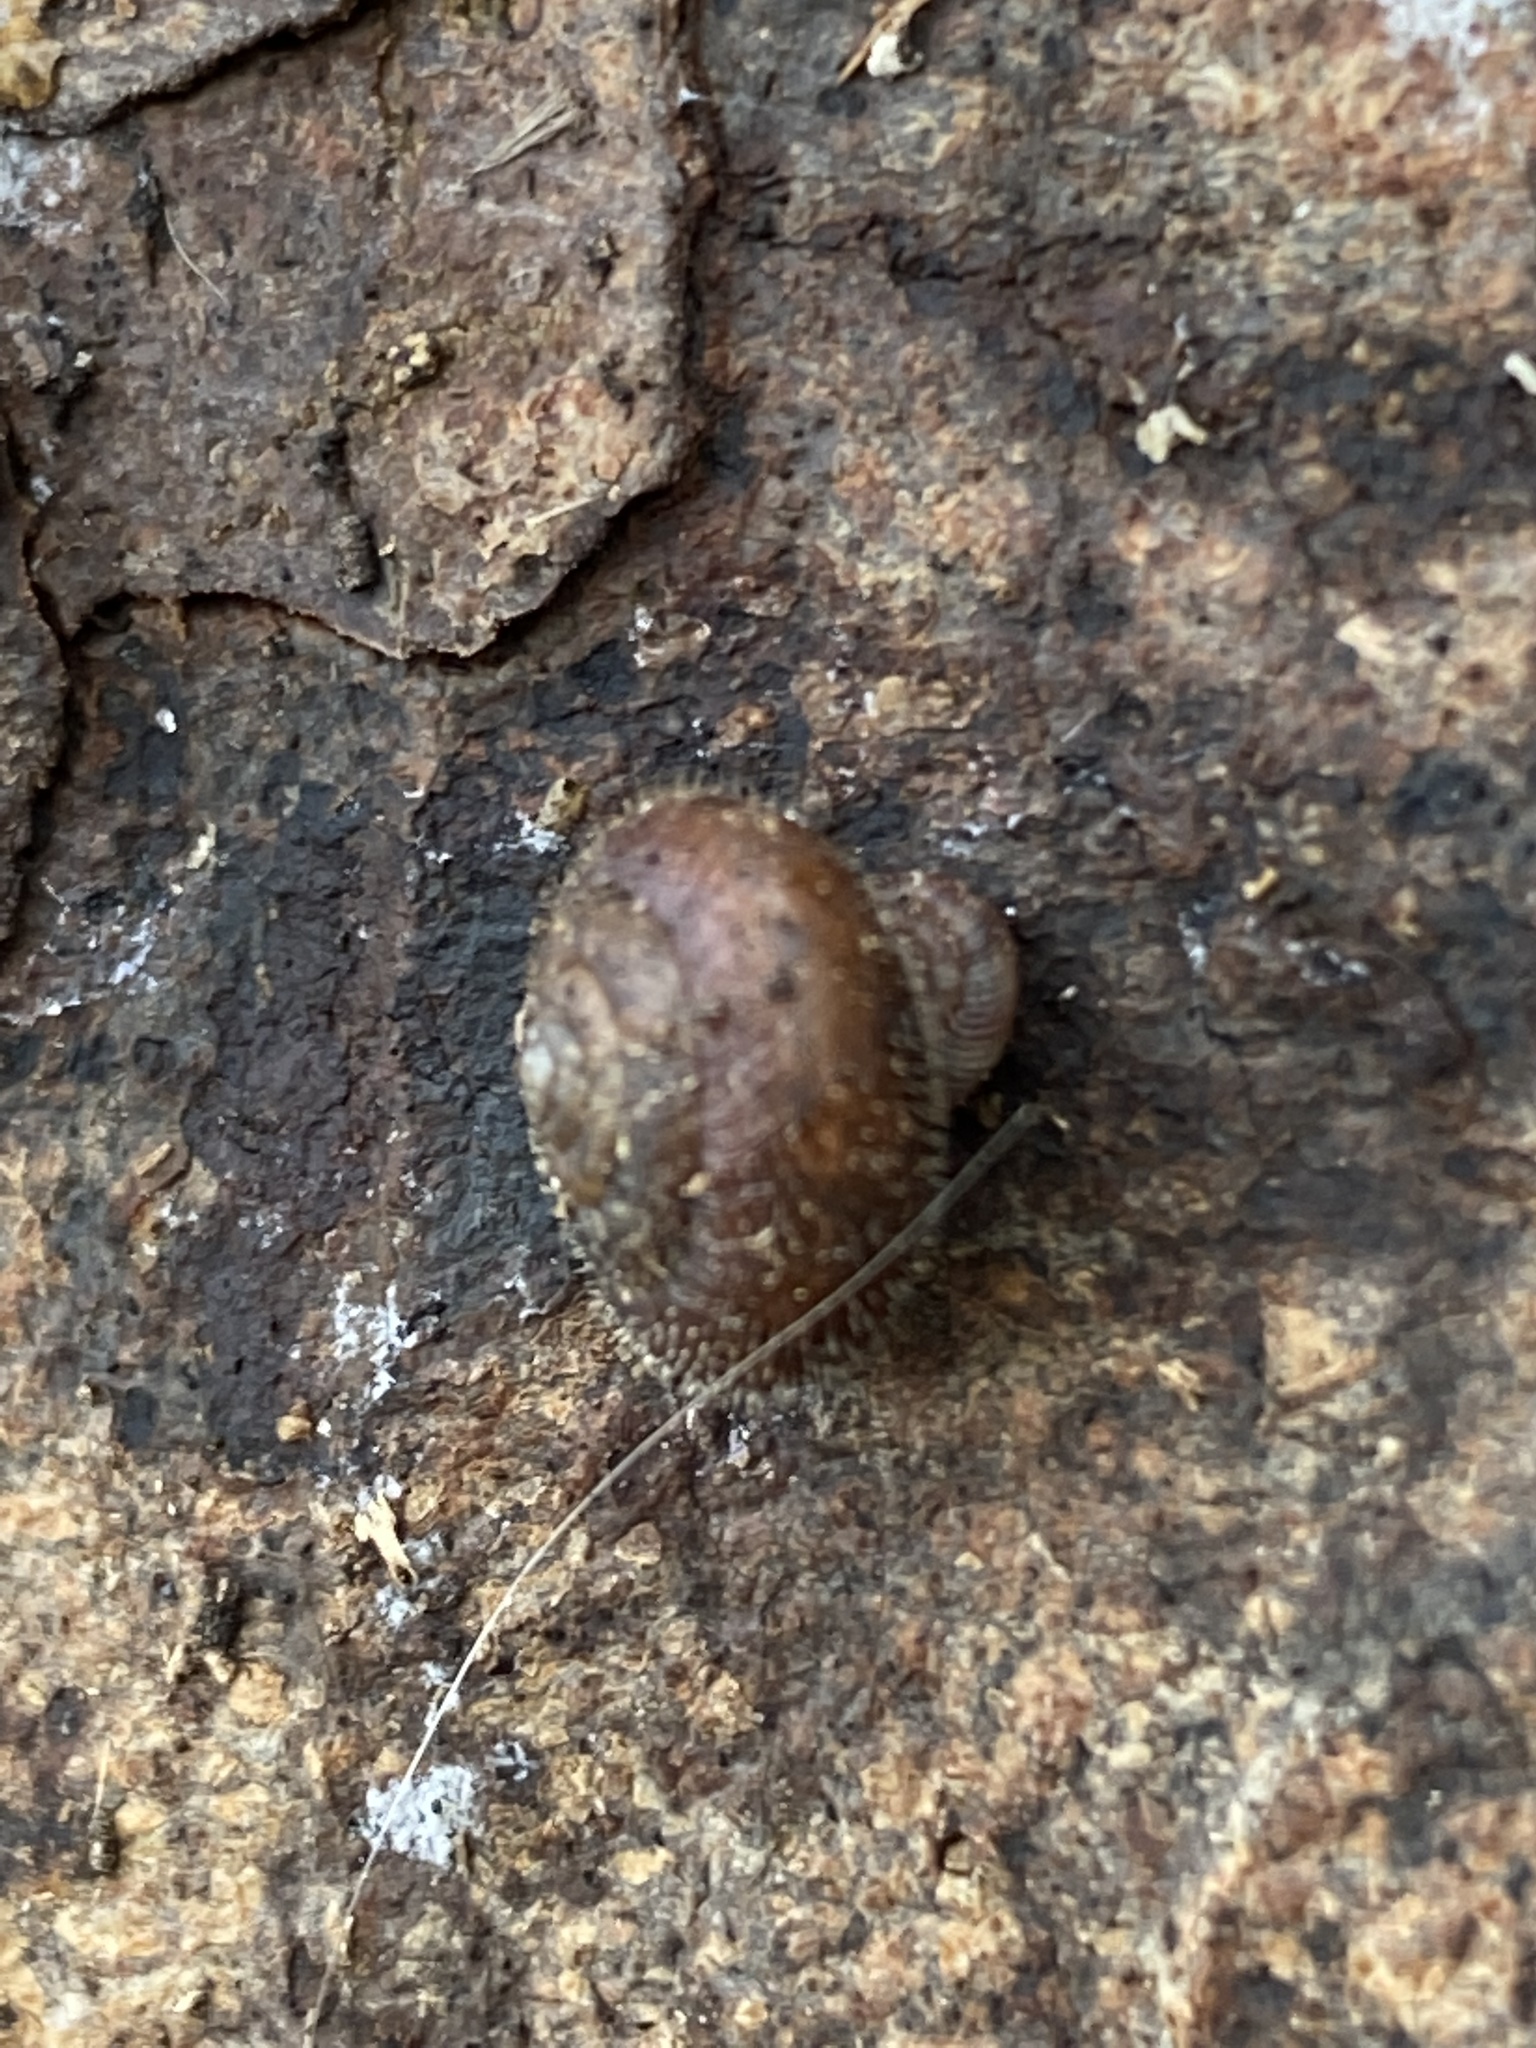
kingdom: Animalia
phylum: Mollusca
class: Gastropoda
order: Stylommatophora
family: Hygromiidae
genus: Trochulus
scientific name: Trochulus hispidus
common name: Hairy snail
